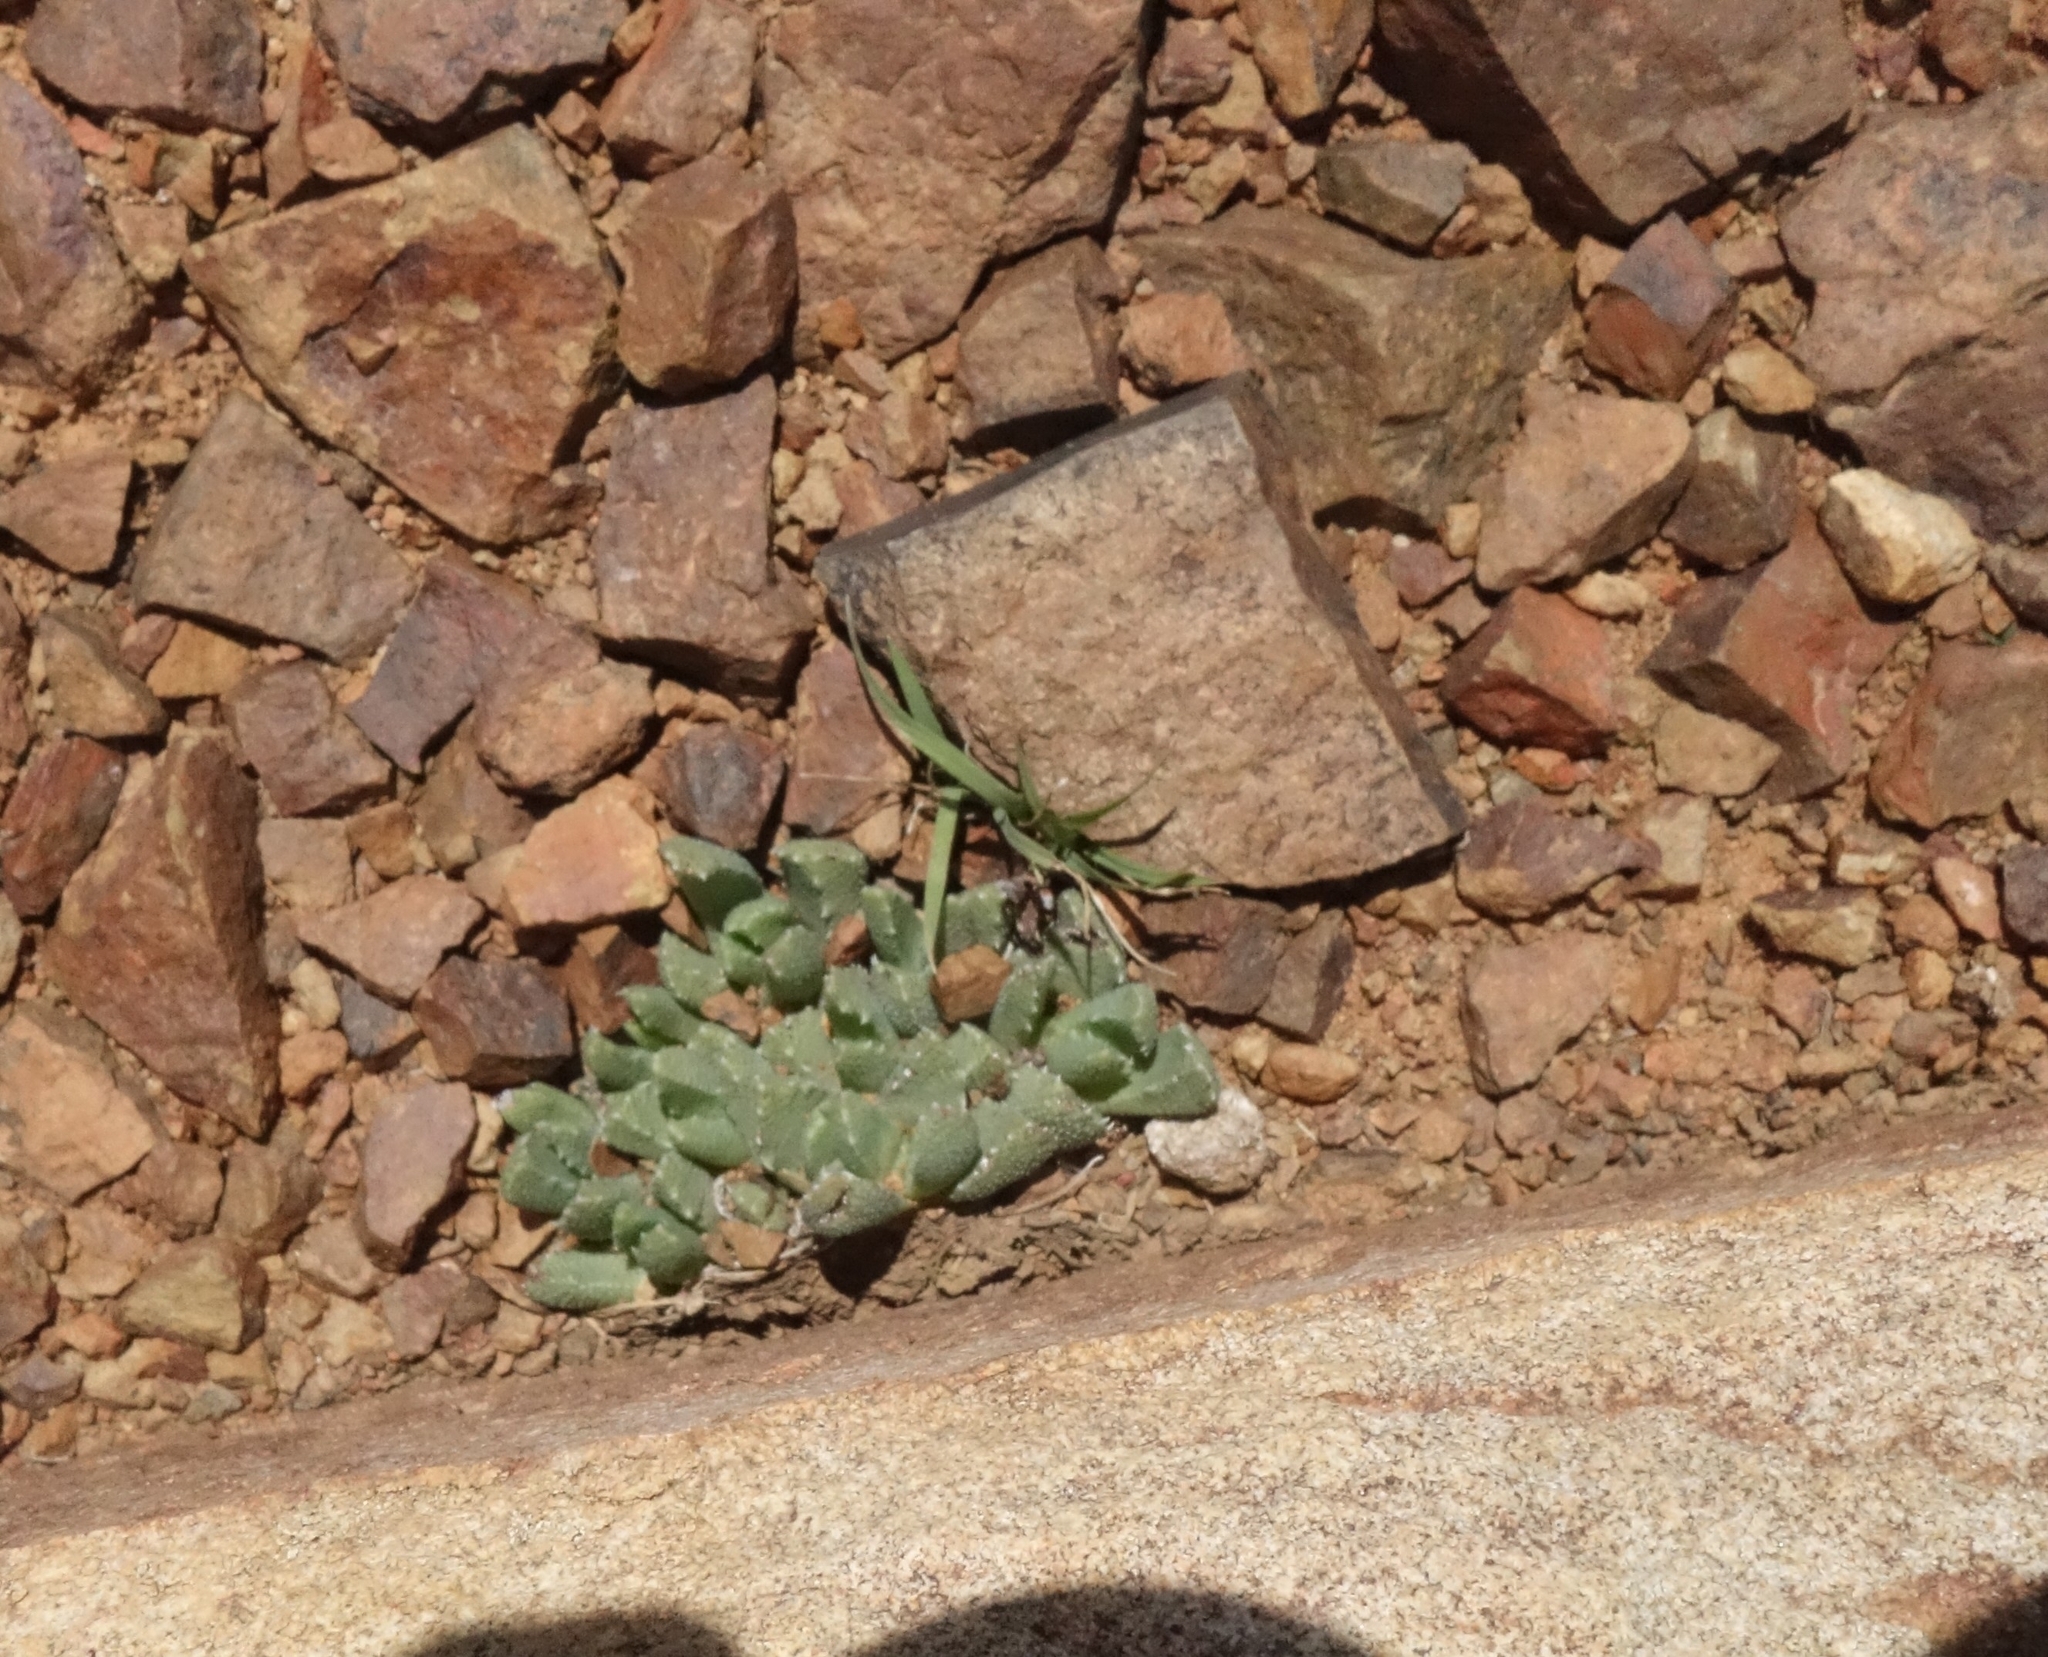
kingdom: Plantae
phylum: Tracheophyta
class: Magnoliopsida
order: Caryophyllales
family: Aizoaceae
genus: Stomatium
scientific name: Stomatium middelburgense
